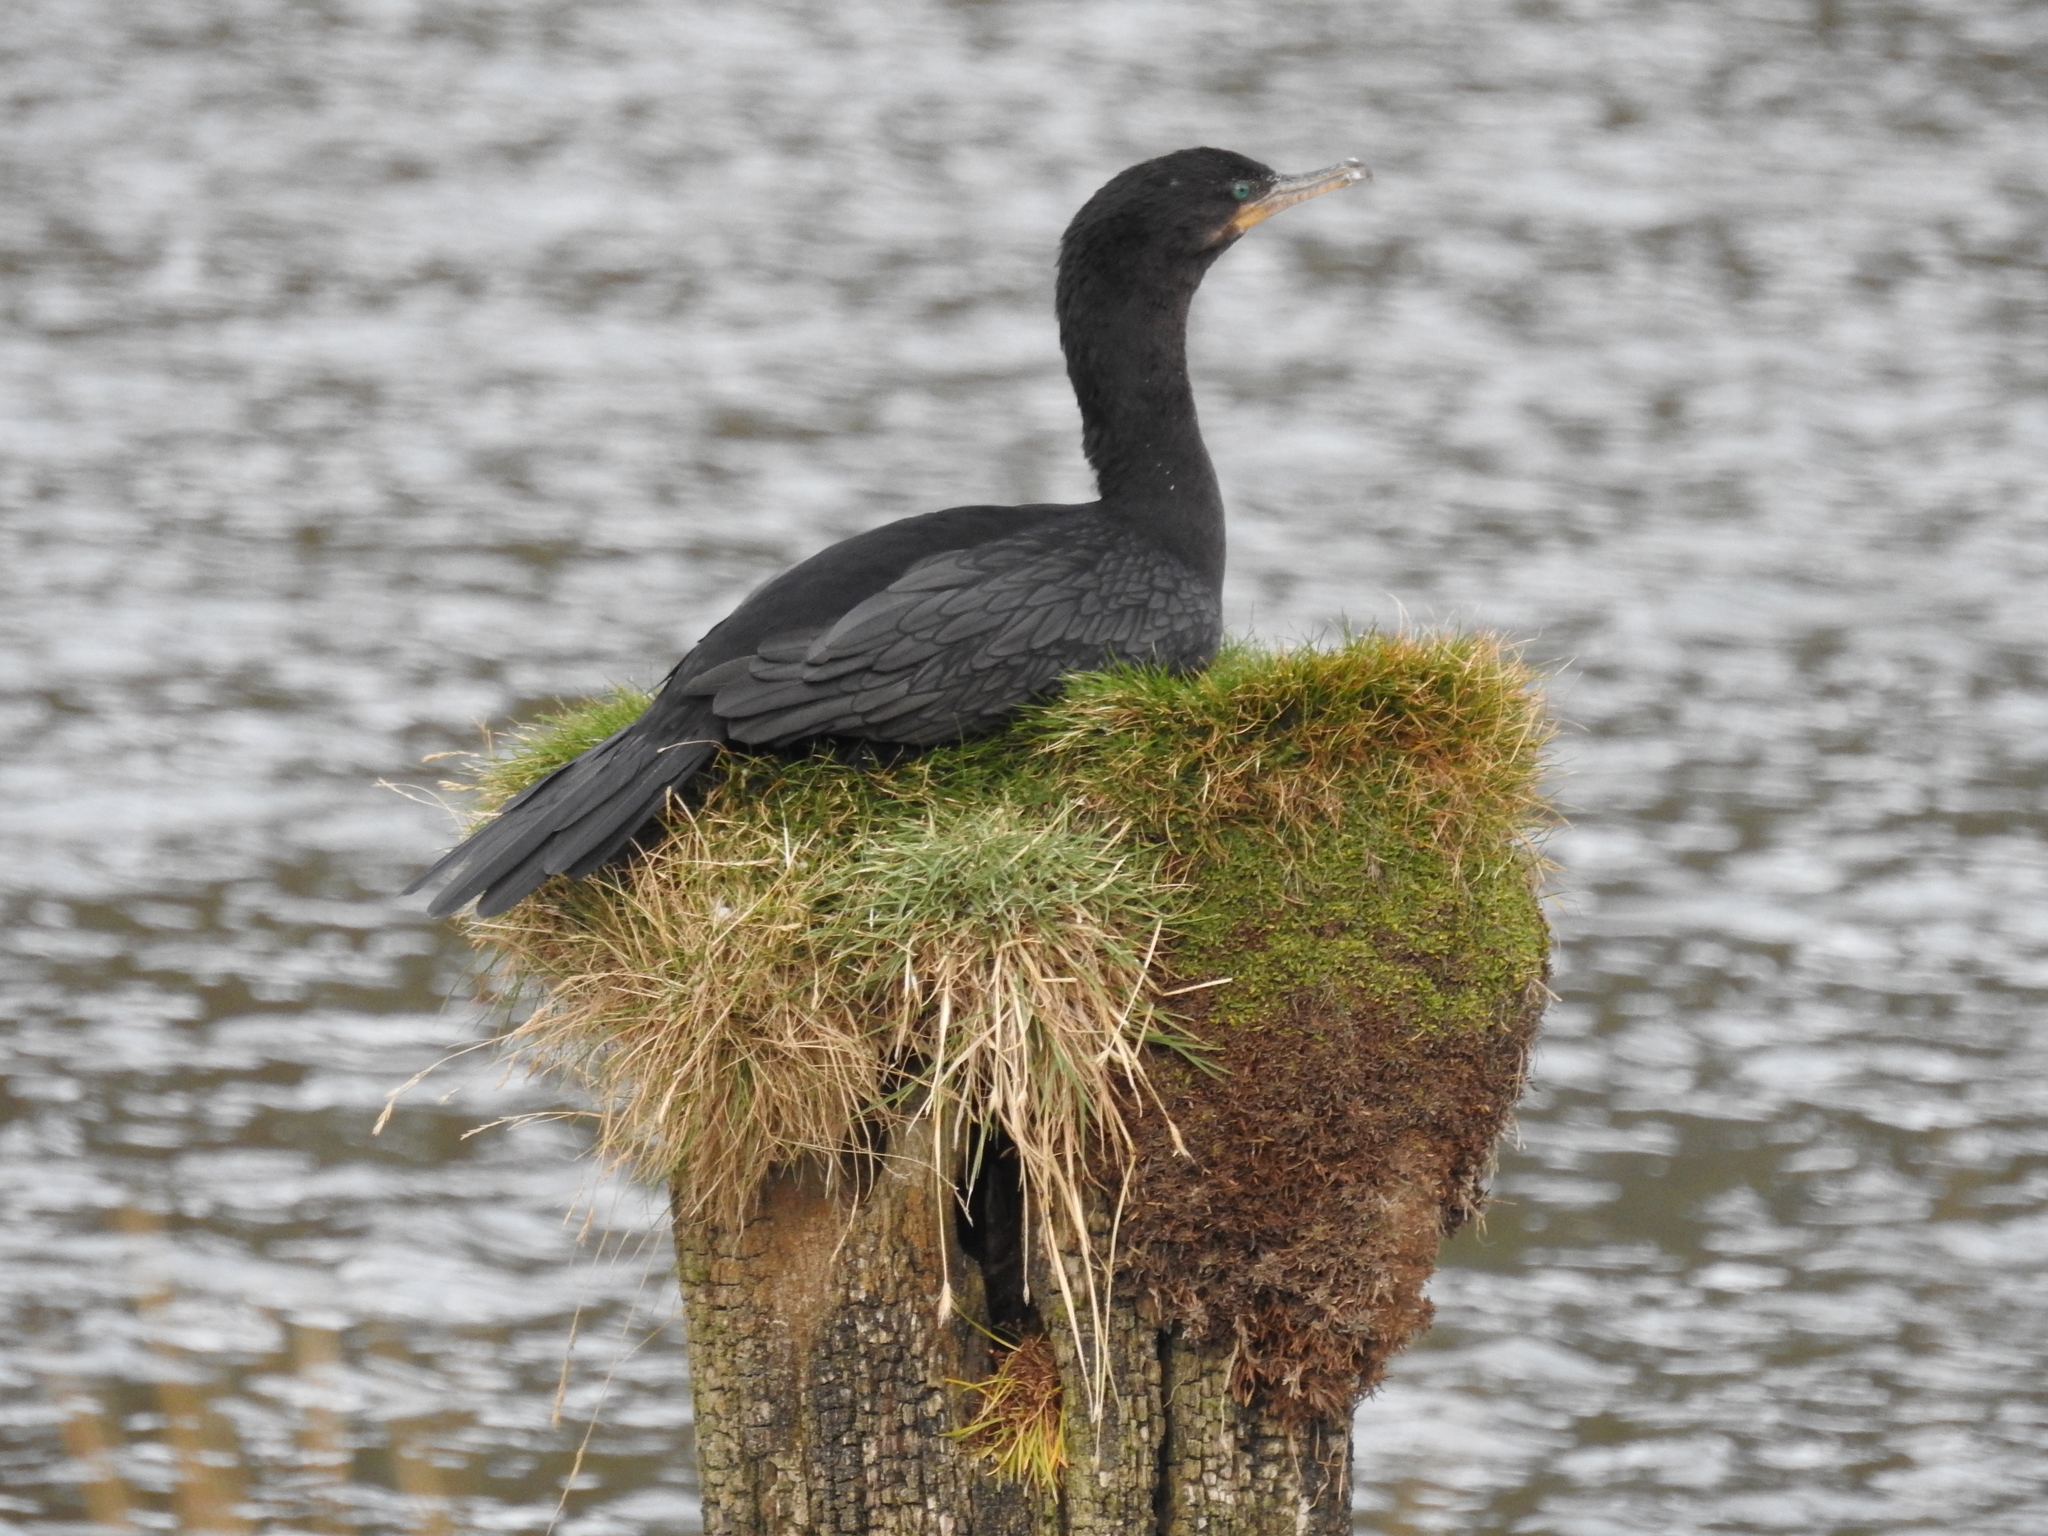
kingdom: Animalia
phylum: Chordata
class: Aves
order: Suliformes
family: Phalacrocoracidae
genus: Phalacrocorax
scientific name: Phalacrocorax brasilianus
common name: Neotropic cormorant
